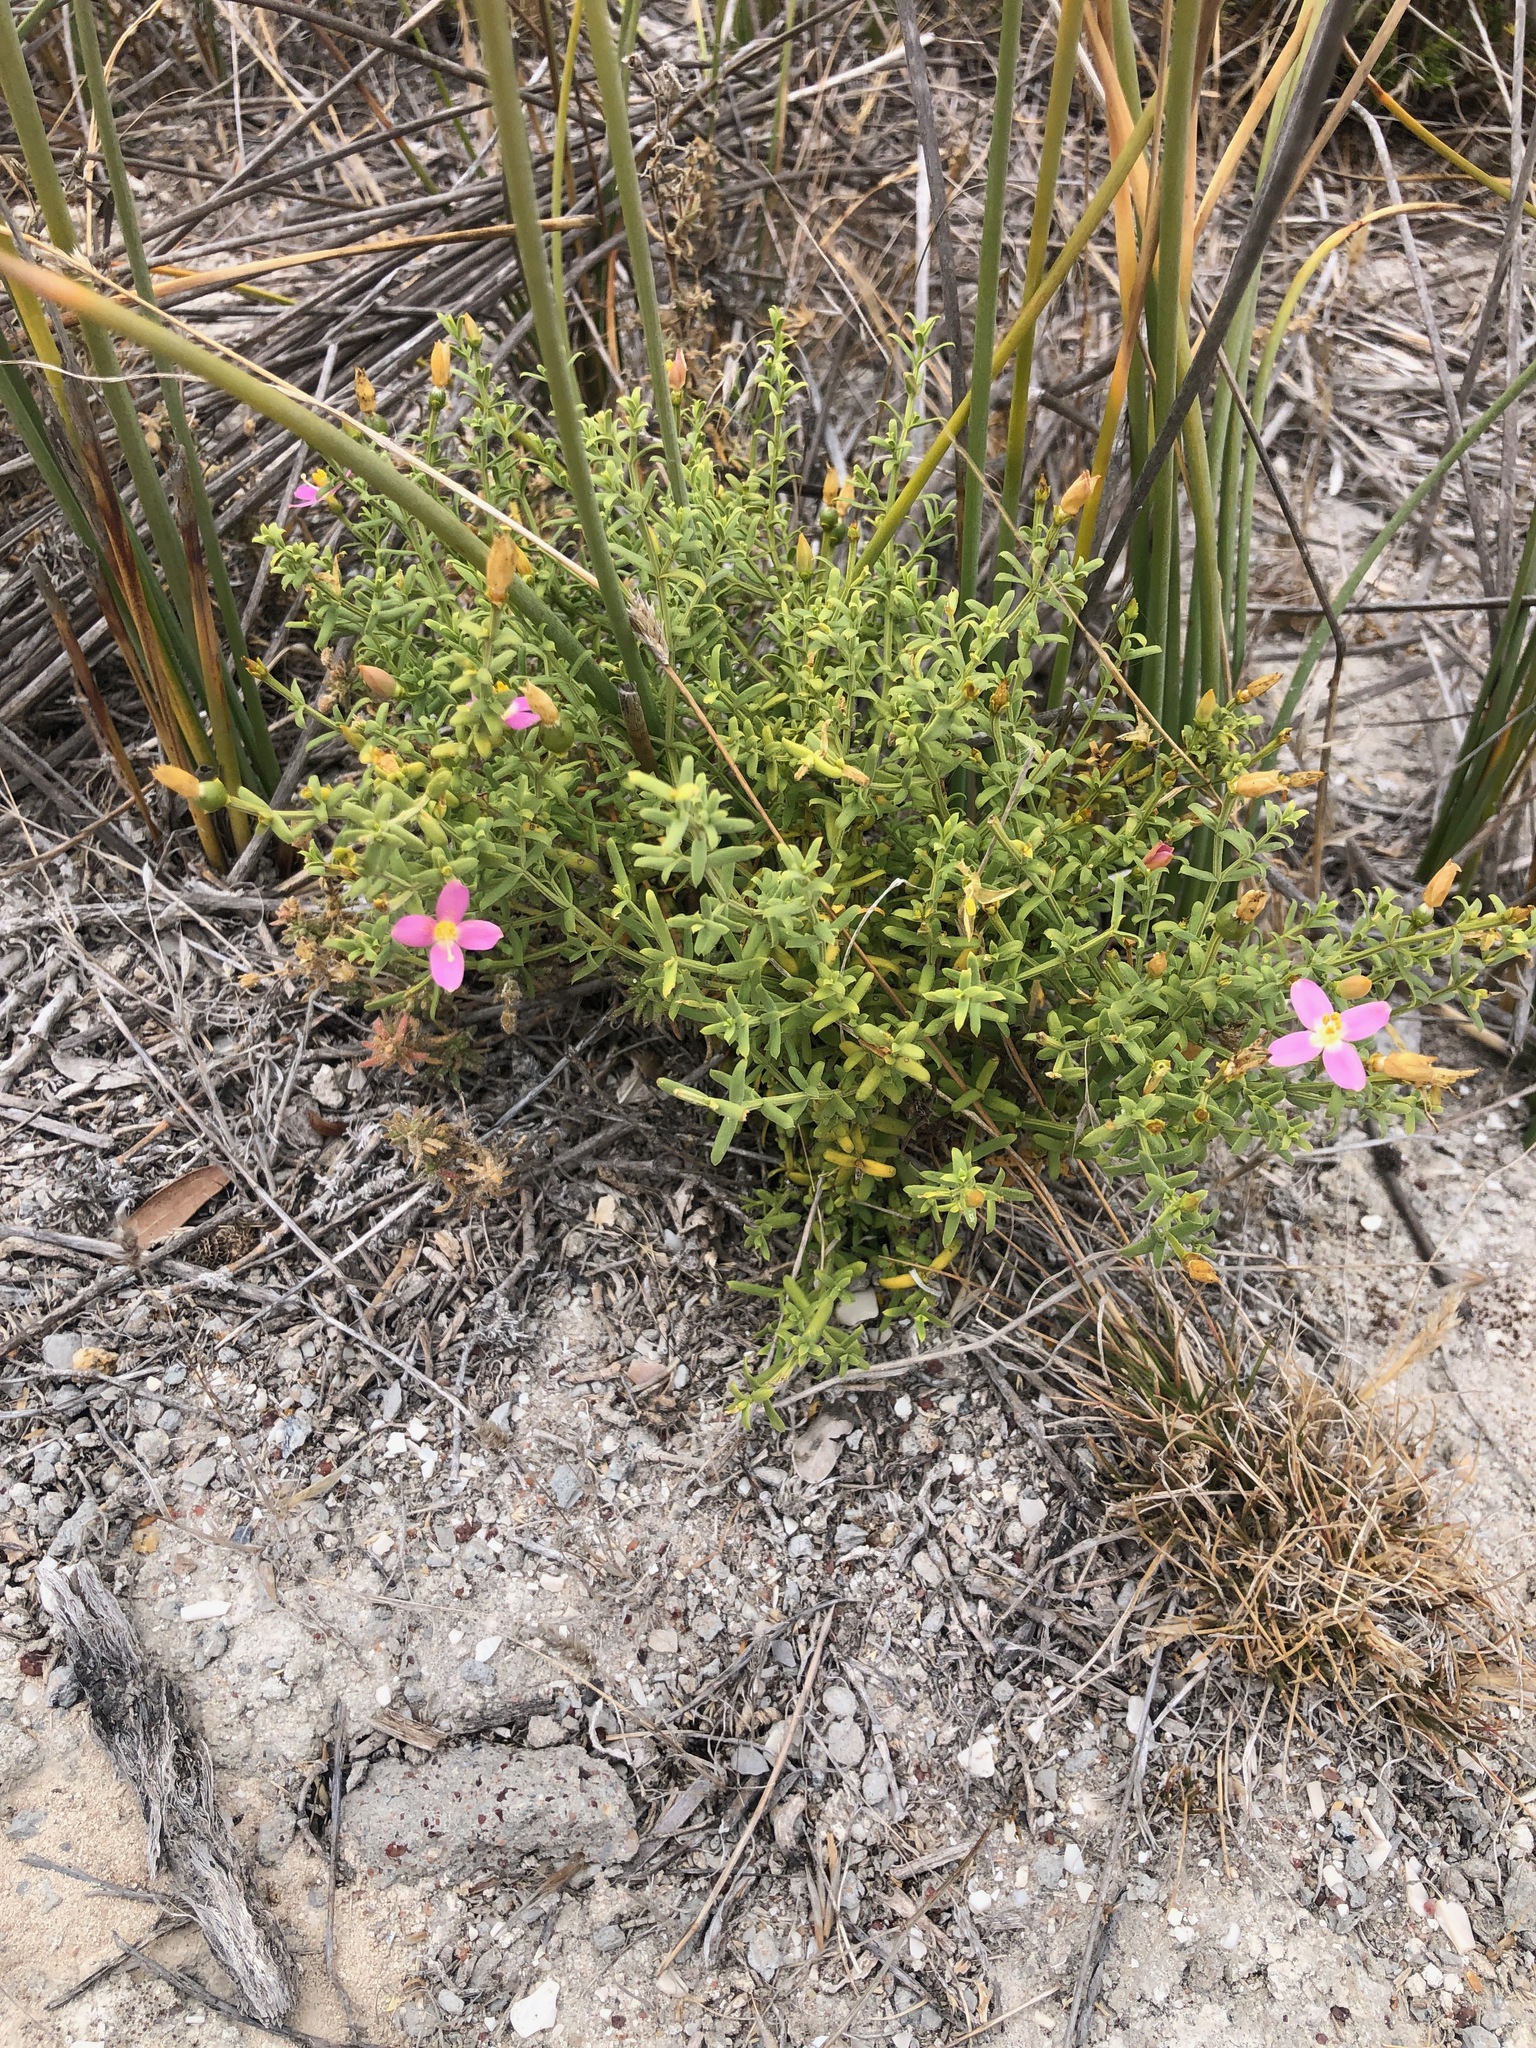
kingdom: Plantae
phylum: Tracheophyta
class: Magnoliopsida
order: Gentianales
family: Gentianaceae
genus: Chironia
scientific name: Chironia baccifera
